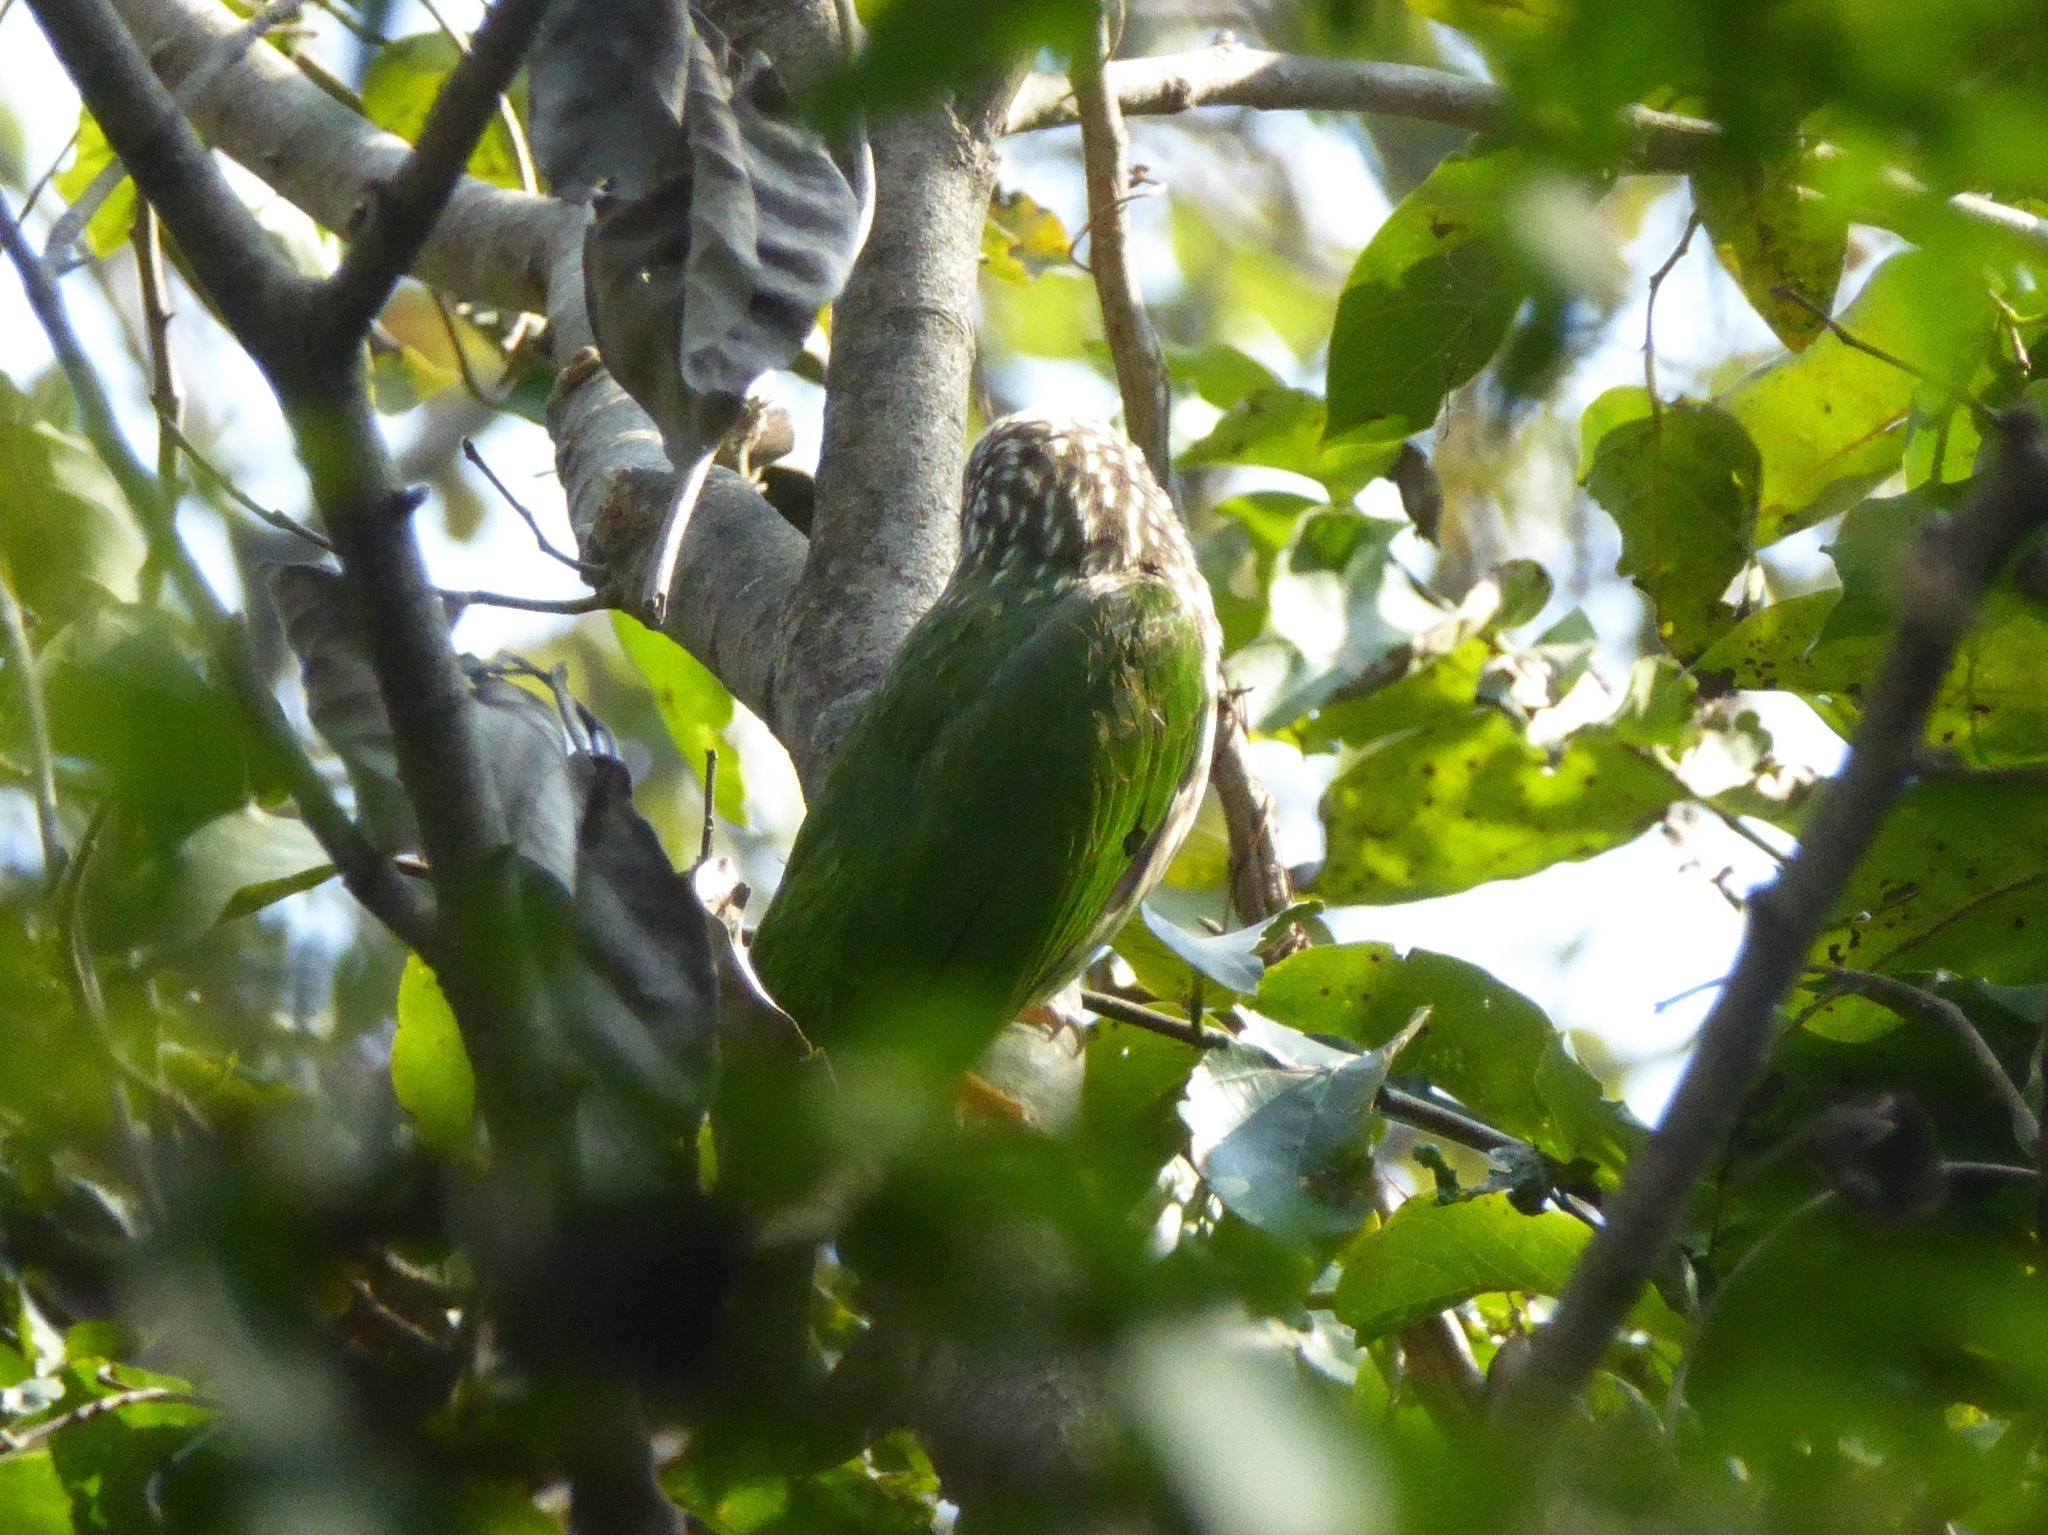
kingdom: Animalia
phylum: Chordata
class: Aves
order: Piciformes
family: Megalaimidae
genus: Psilopogon
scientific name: Psilopogon lineatus
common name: Lineated barbet
